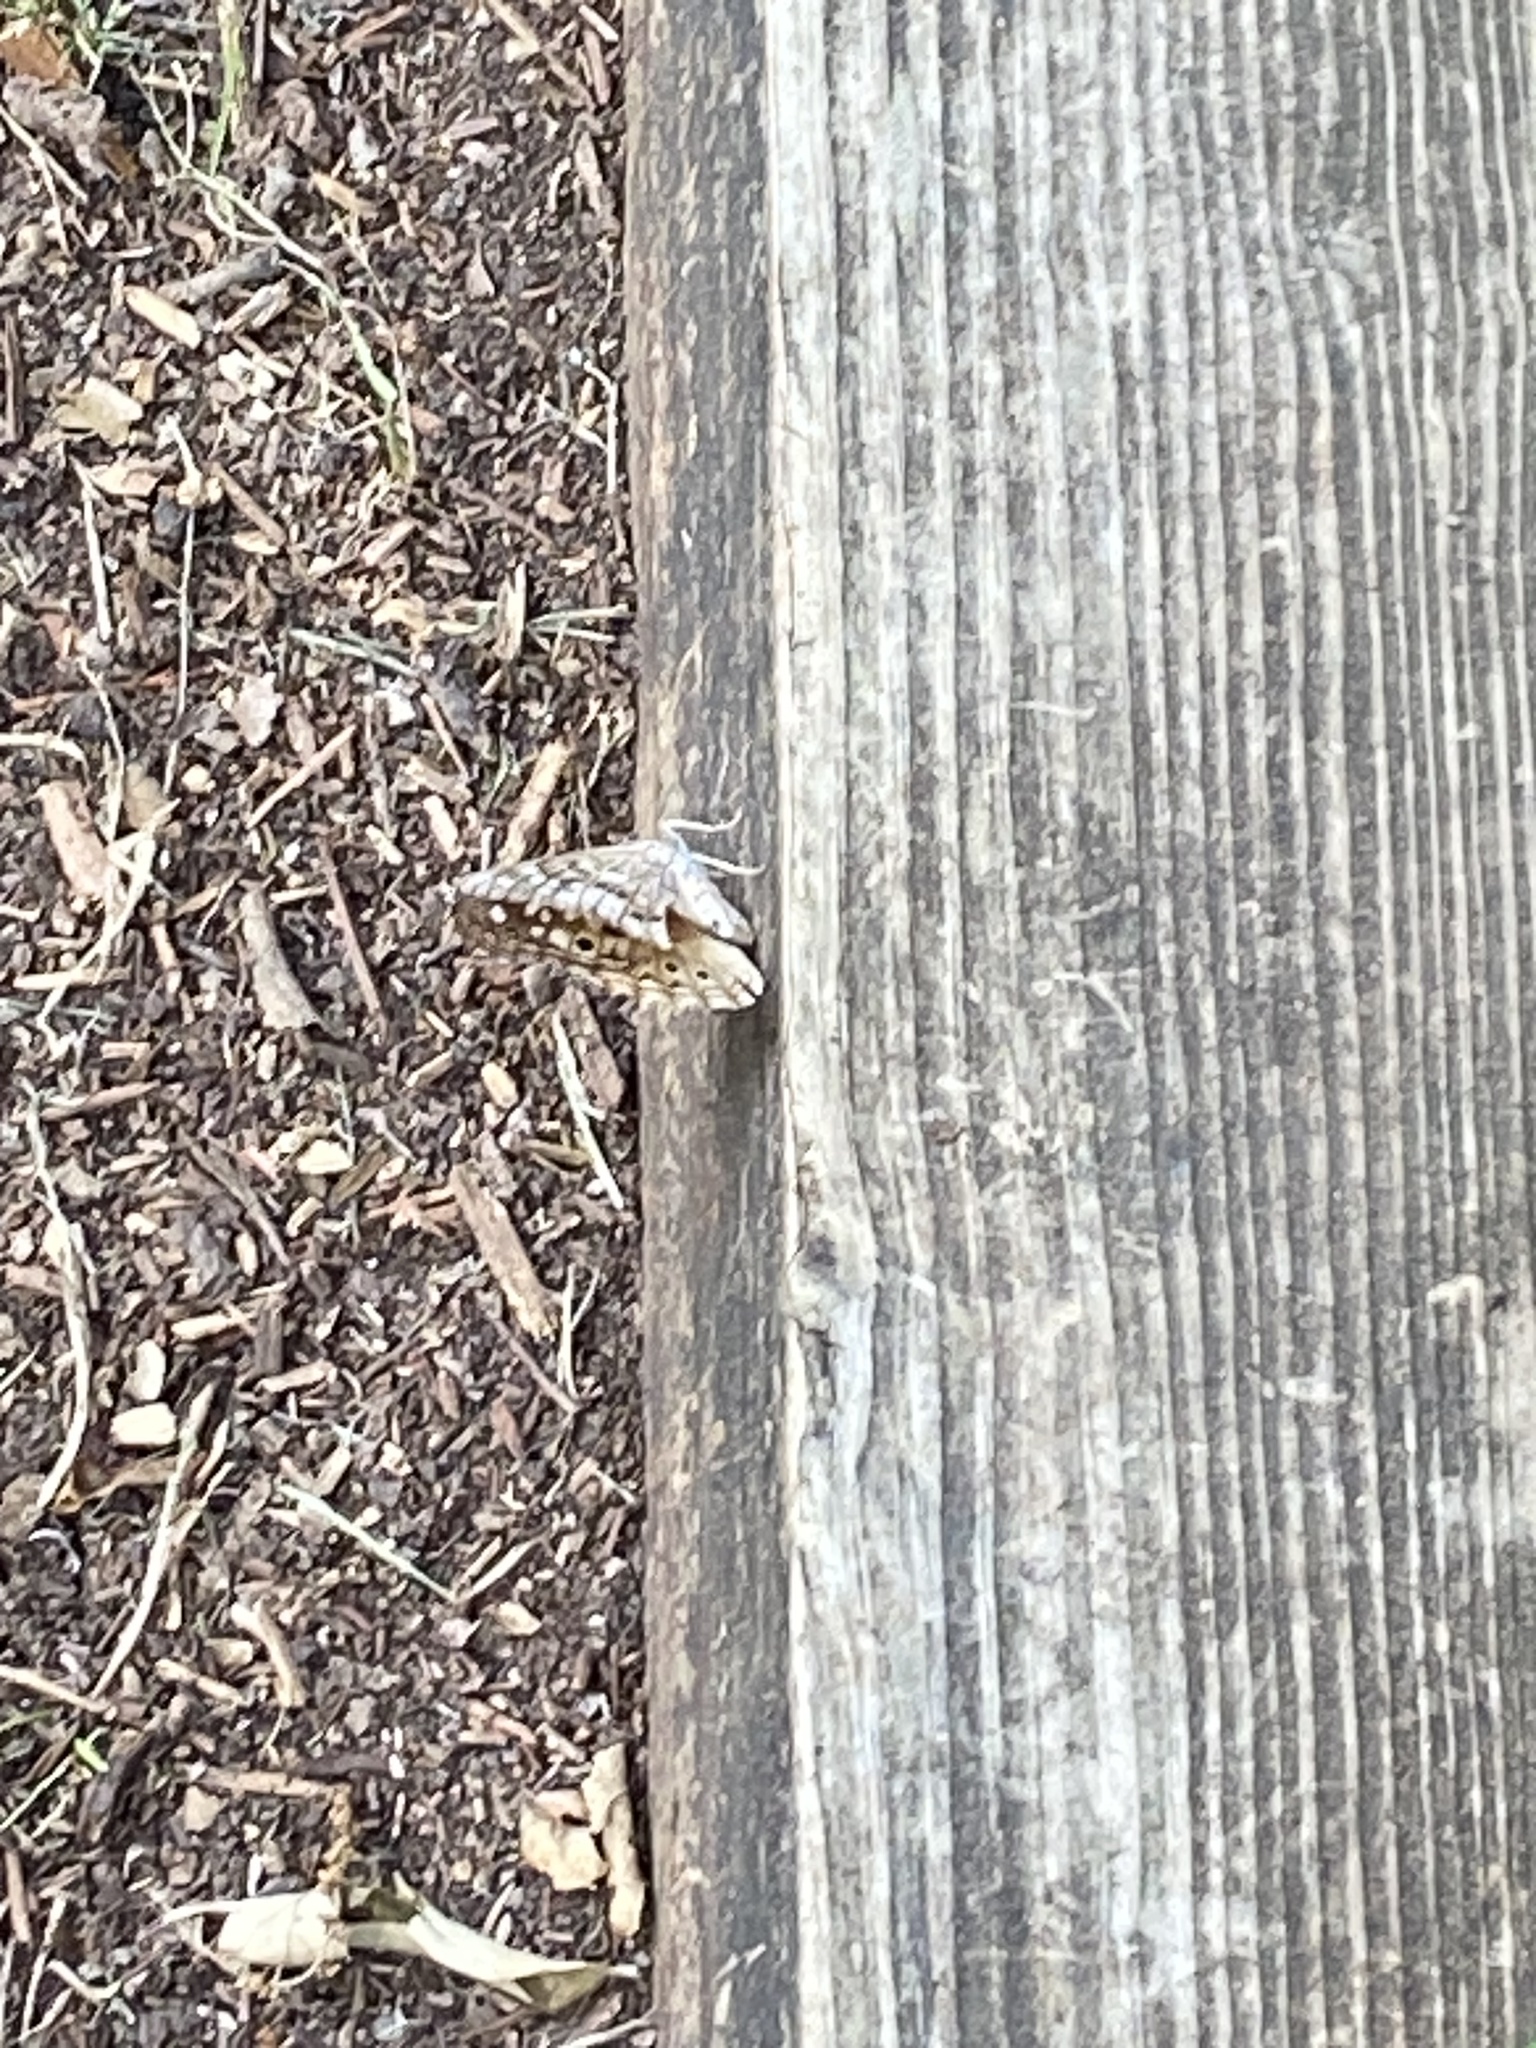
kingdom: Animalia
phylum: Arthropoda
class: Insecta
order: Lepidoptera
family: Nymphalidae
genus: Asterocampa
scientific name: Asterocampa celtis
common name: Hackberry emperor
